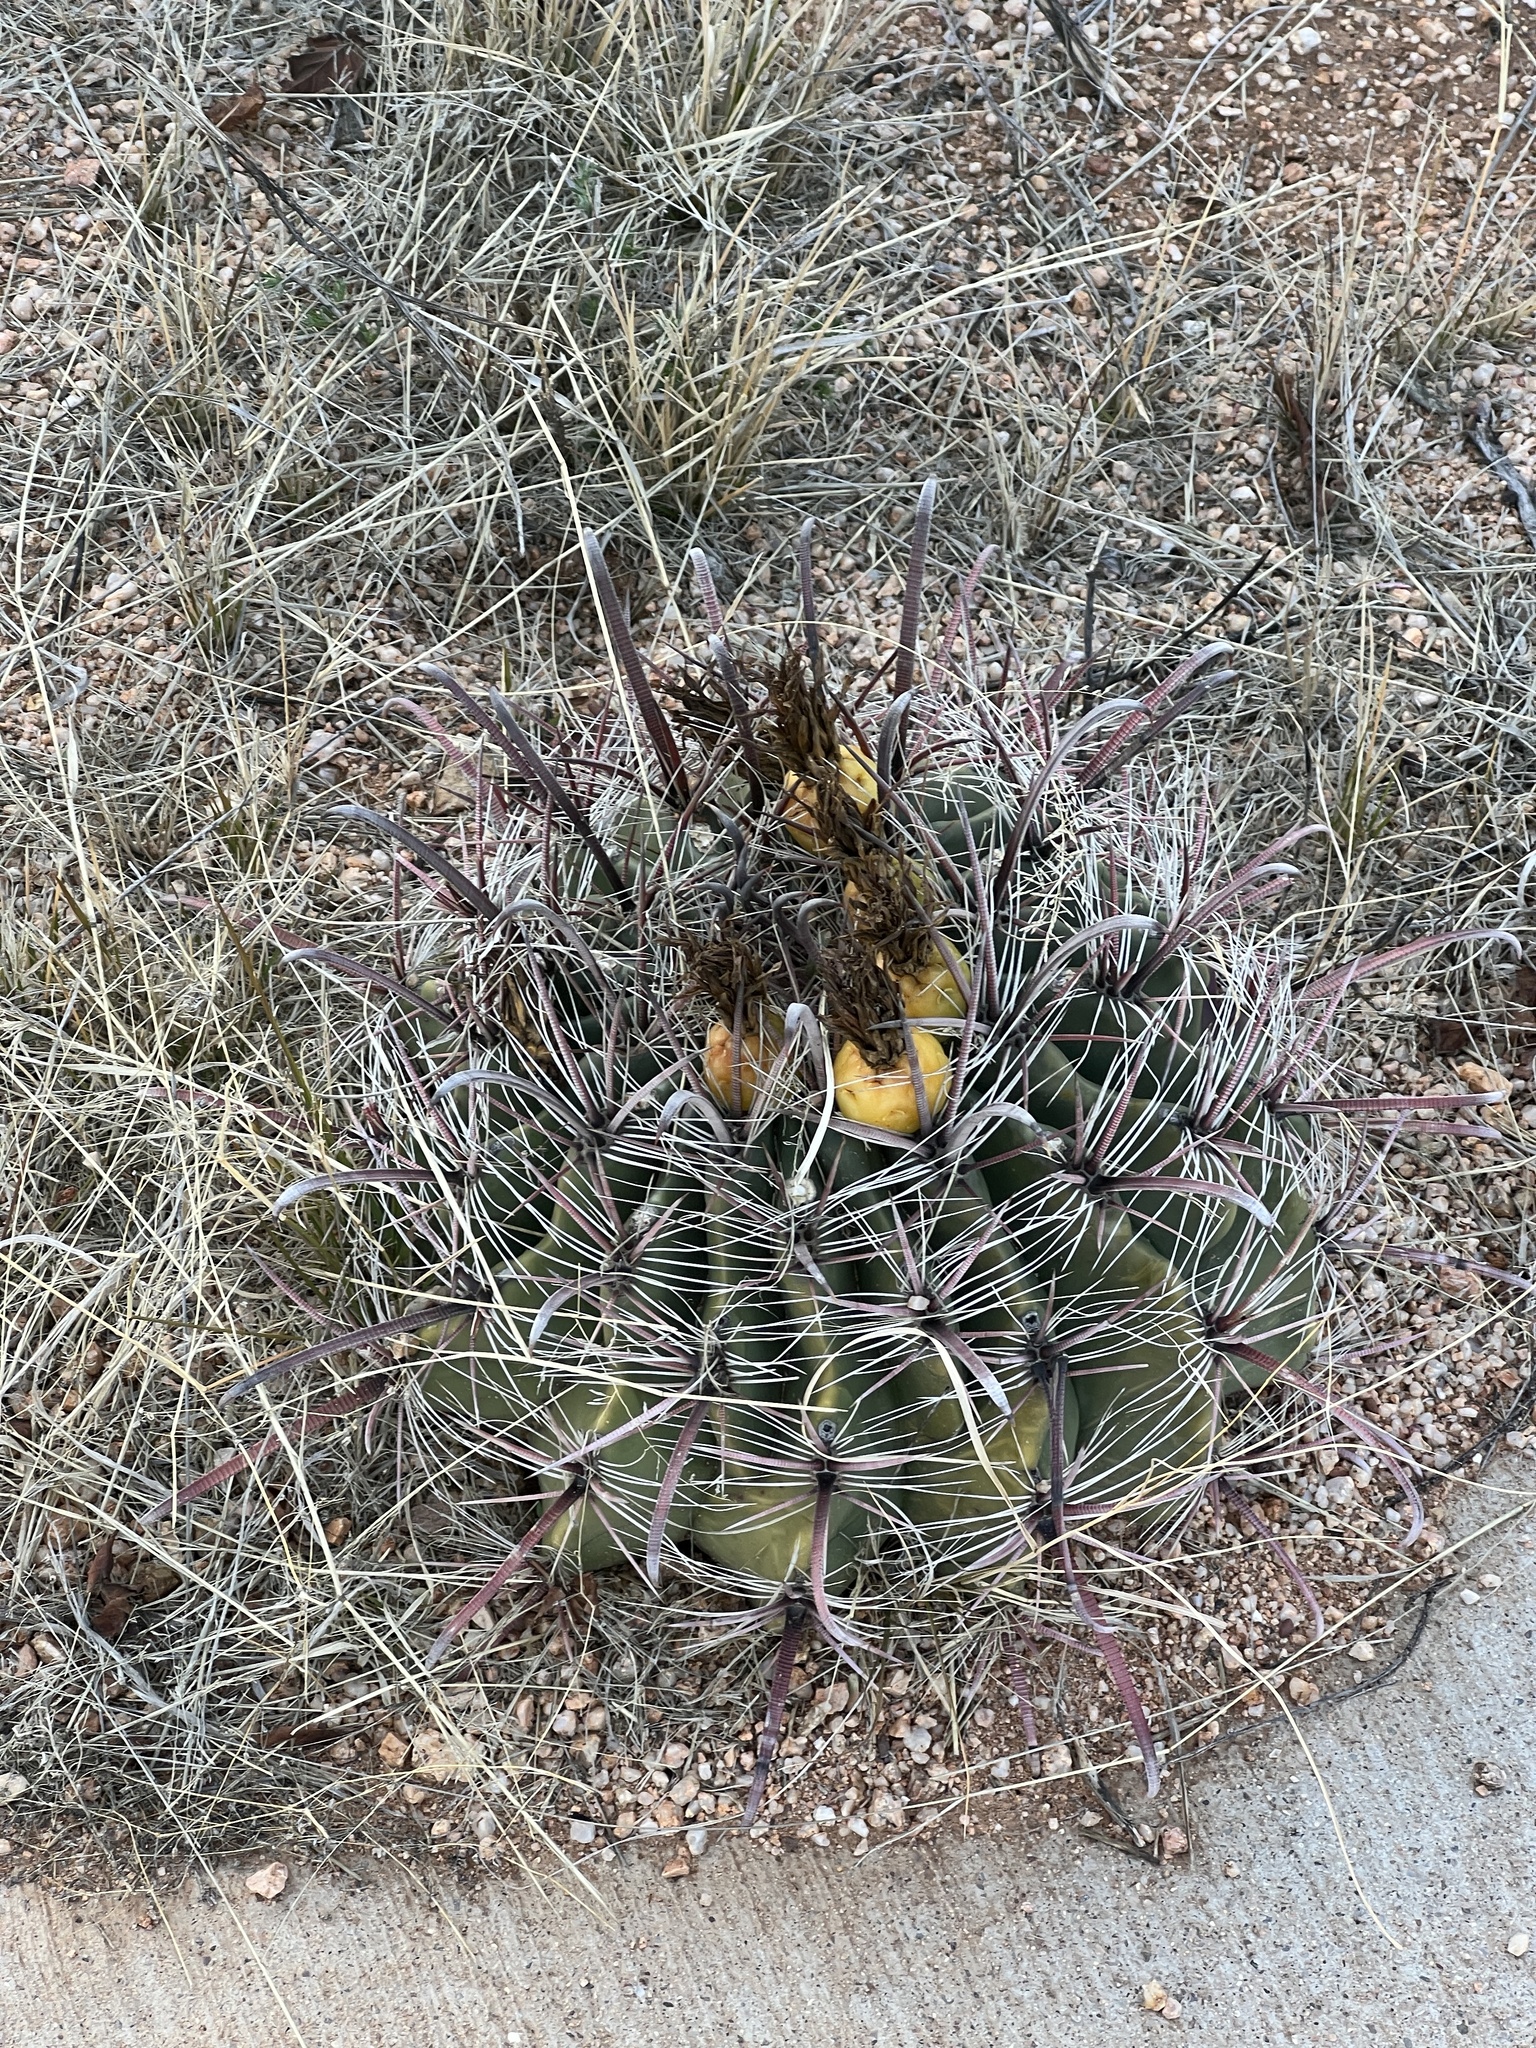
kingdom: Plantae
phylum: Tracheophyta
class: Magnoliopsida
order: Caryophyllales
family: Cactaceae
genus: Ferocactus
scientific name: Ferocactus wislizeni
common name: Candy barrel cactus
